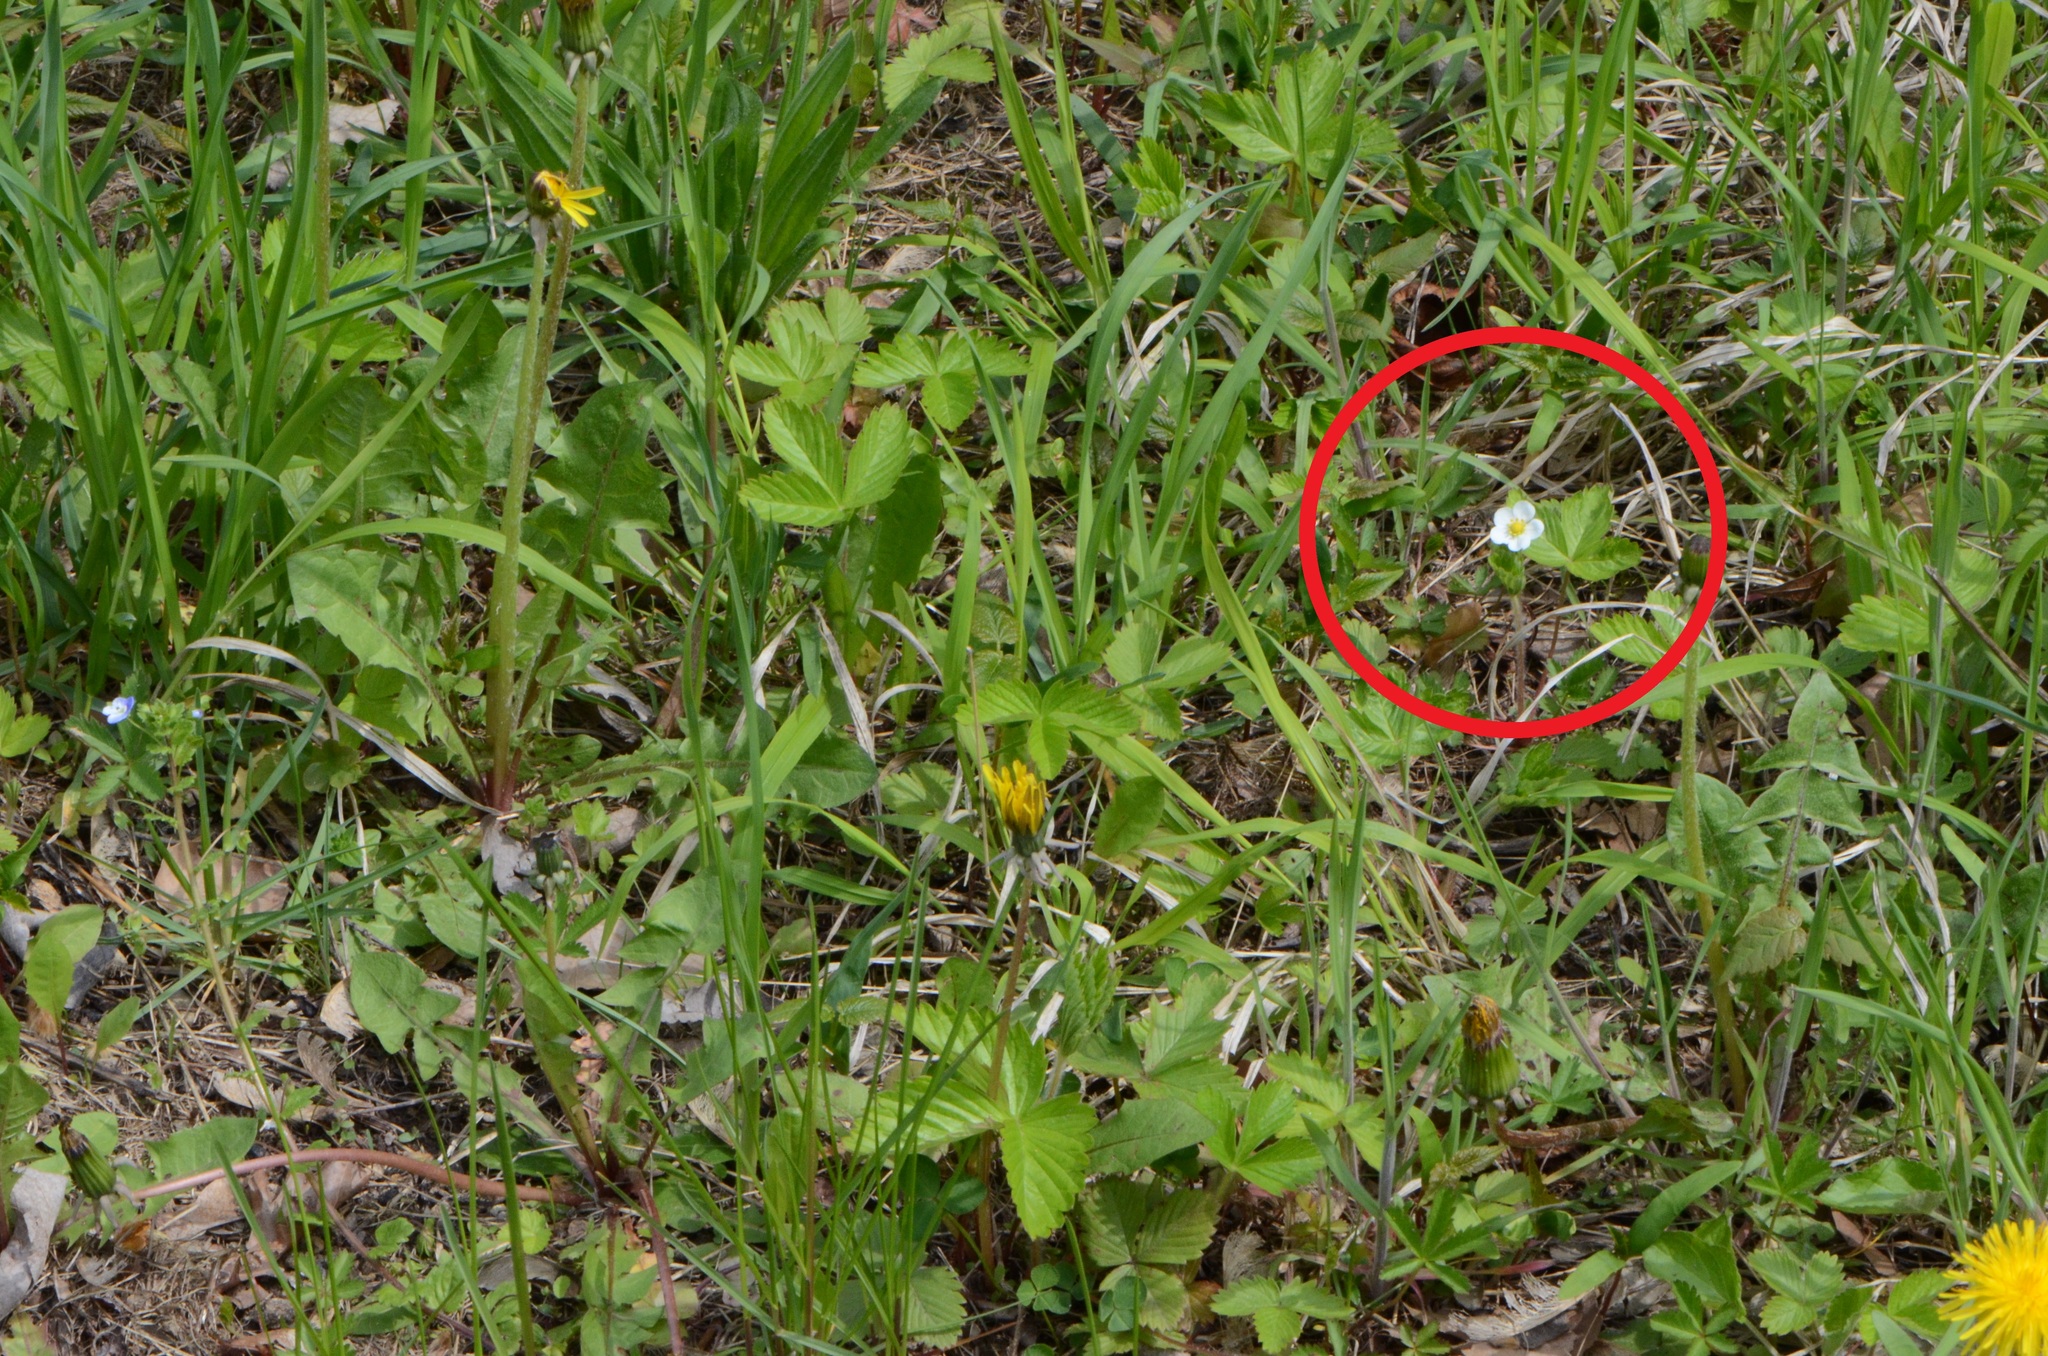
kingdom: Plantae
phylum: Tracheophyta
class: Magnoliopsida
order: Rosales
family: Rosaceae
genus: Fragaria
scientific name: Fragaria vesca
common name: Wild strawberry
